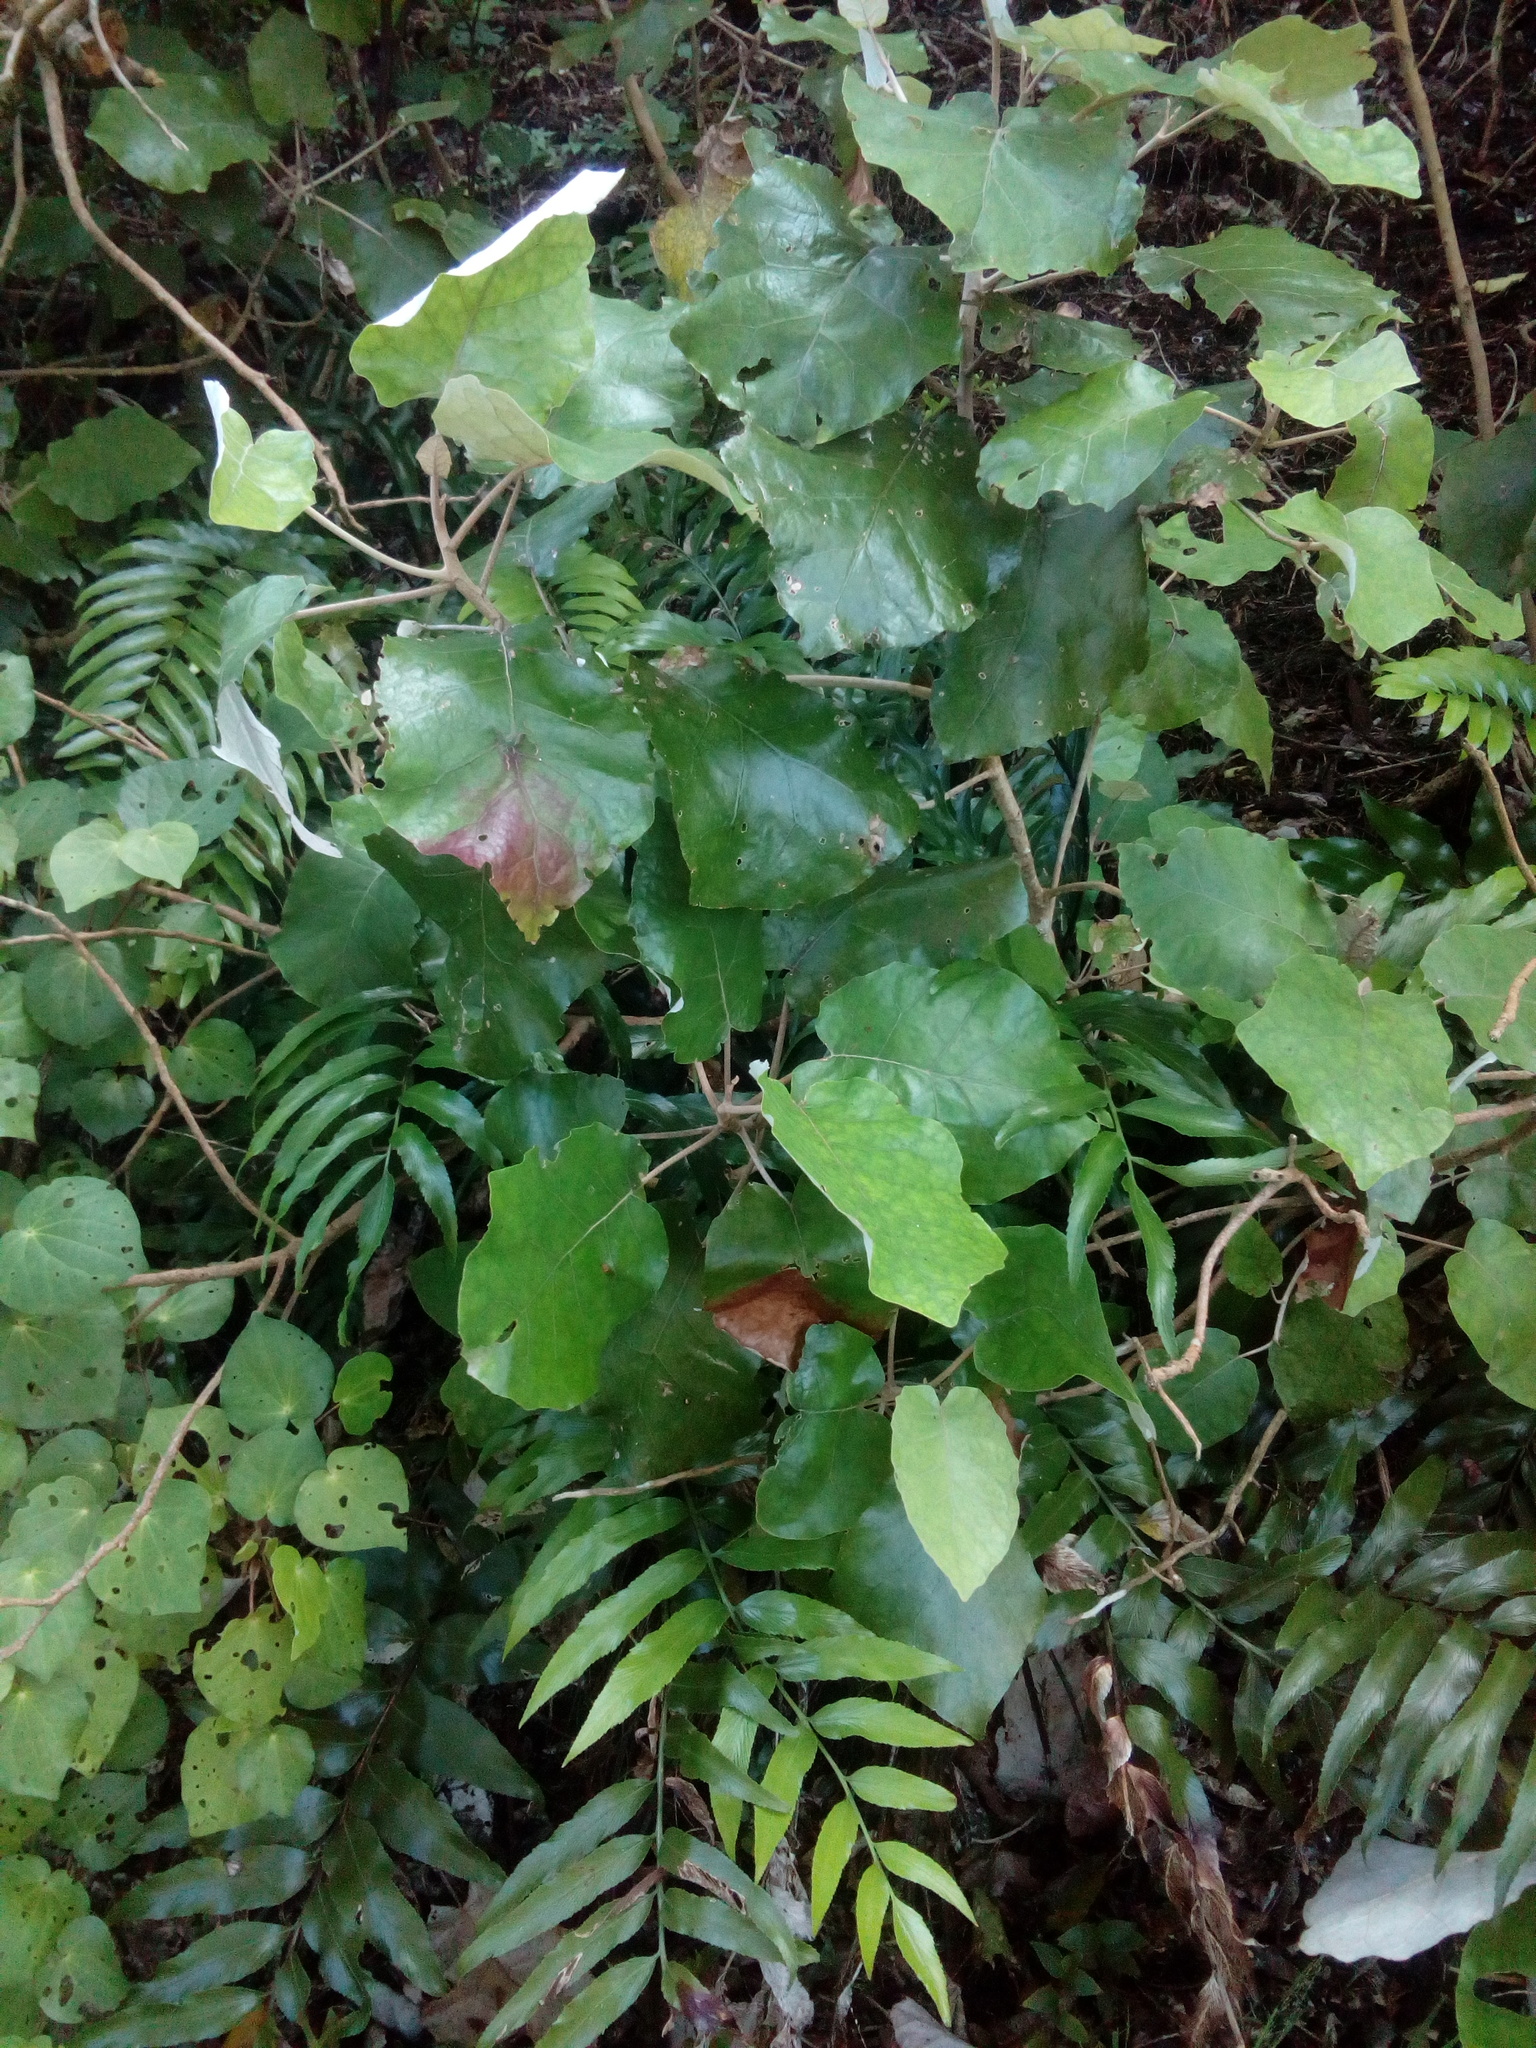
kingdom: Plantae
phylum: Tracheophyta
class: Magnoliopsida
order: Asterales
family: Asteraceae
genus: Brachyglottis
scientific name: Brachyglottis repanda
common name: Hedge ragwort
